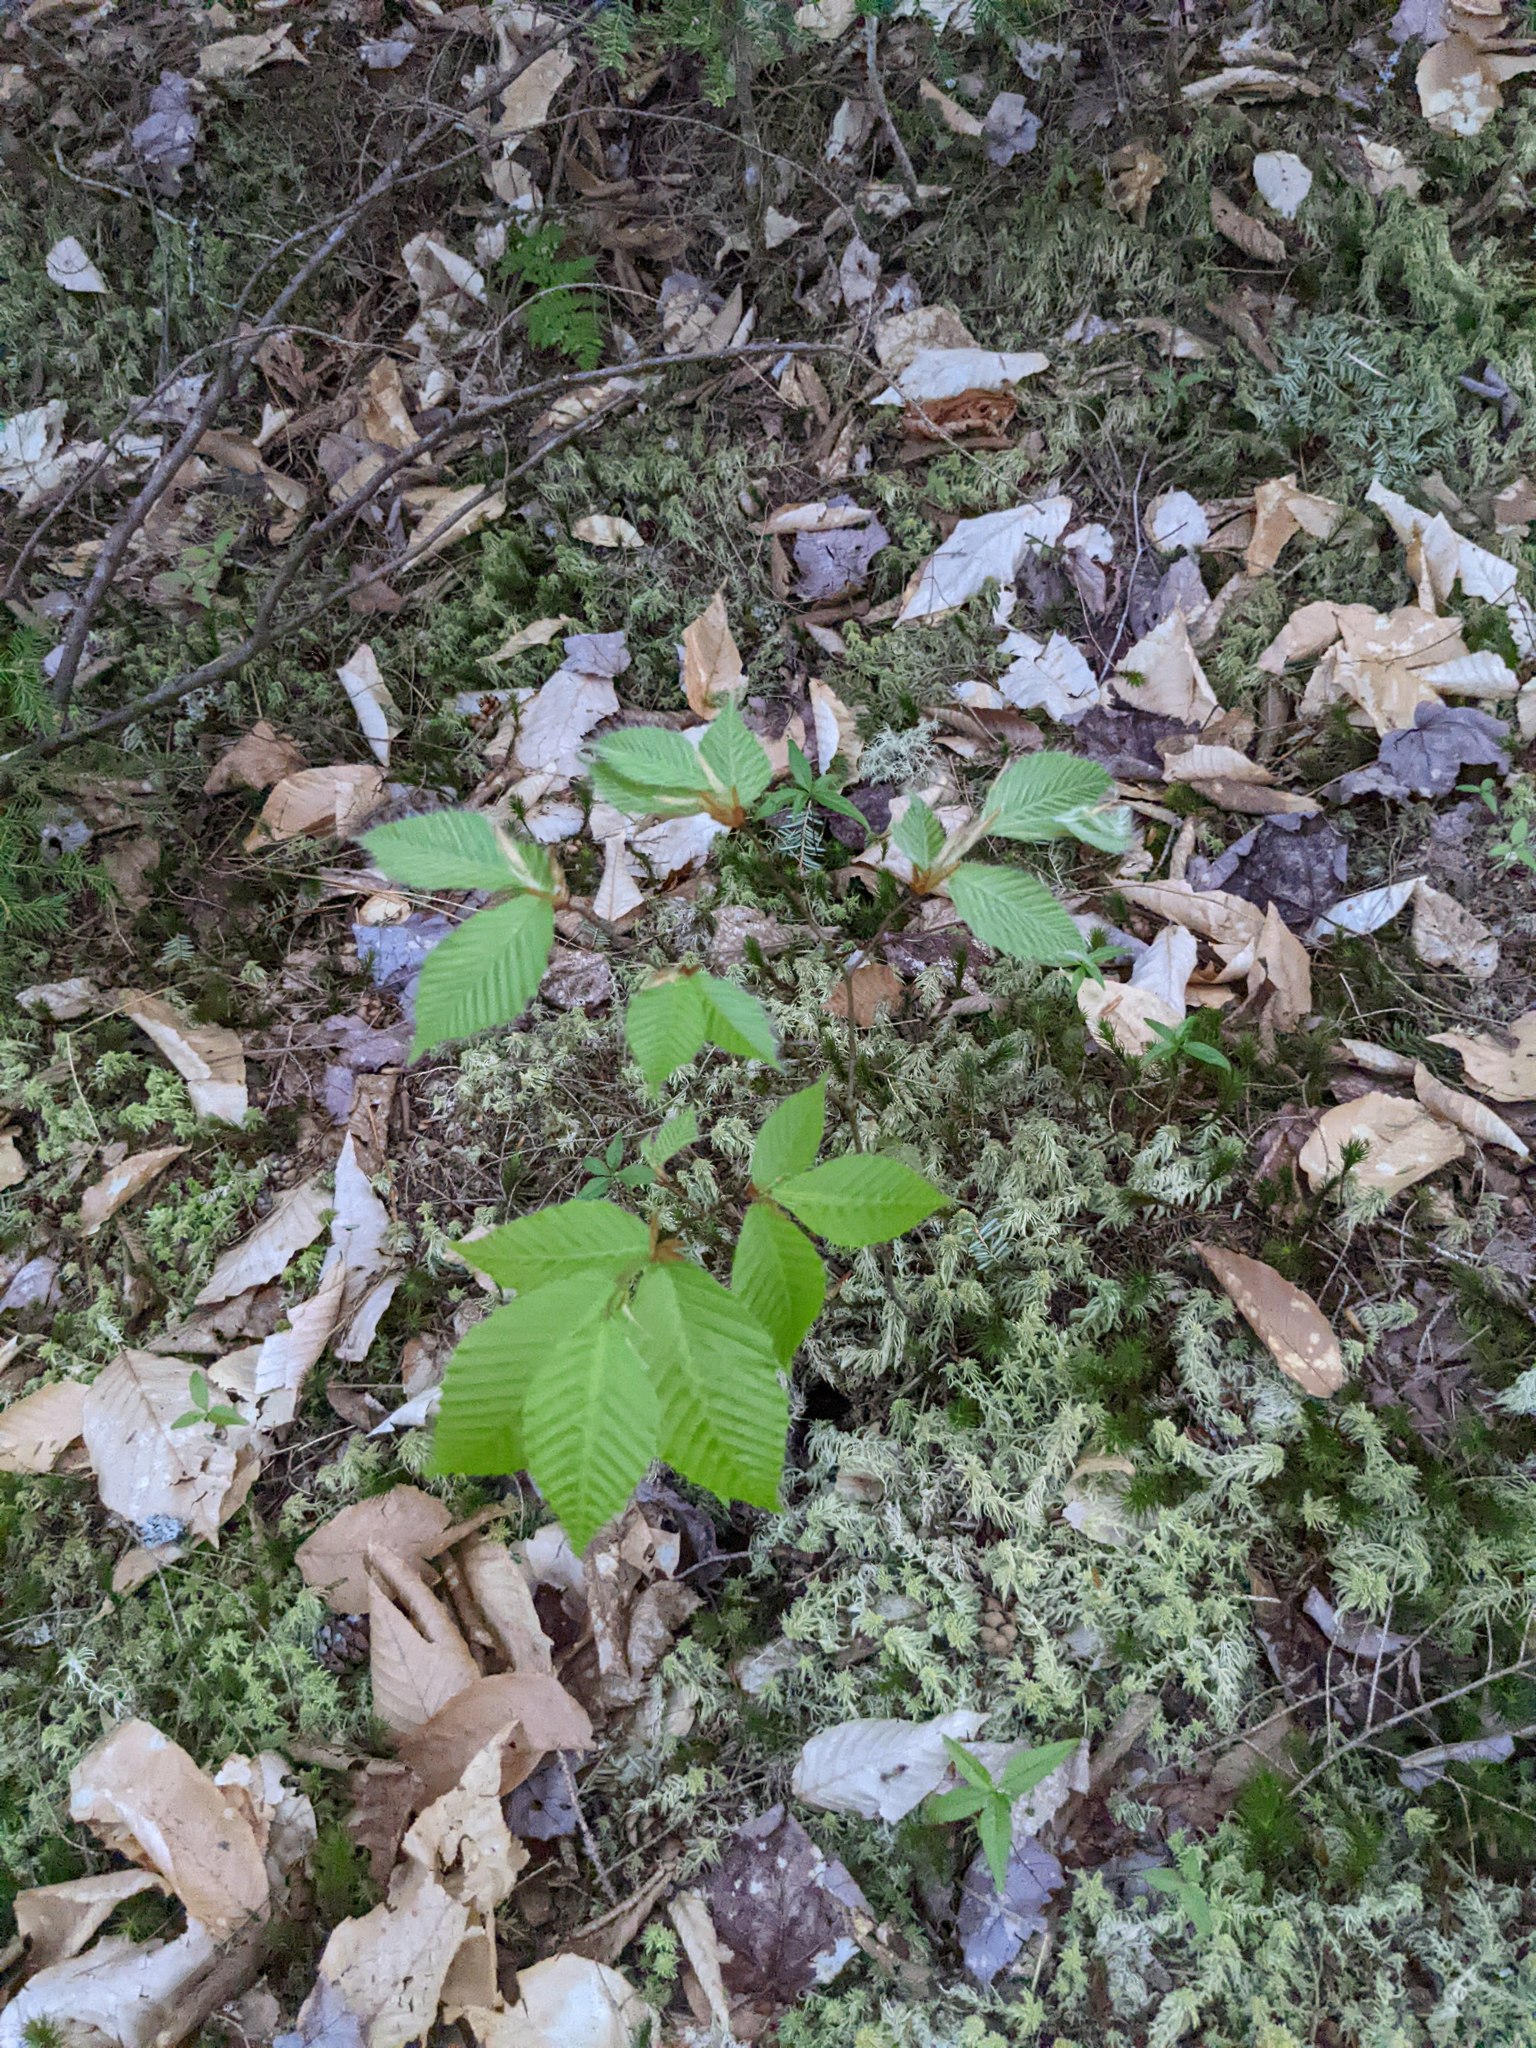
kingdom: Plantae
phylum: Tracheophyta
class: Magnoliopsida
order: Fagales
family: Fagaceae
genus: Fagus
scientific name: Fagus grandifolia
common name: American beech
